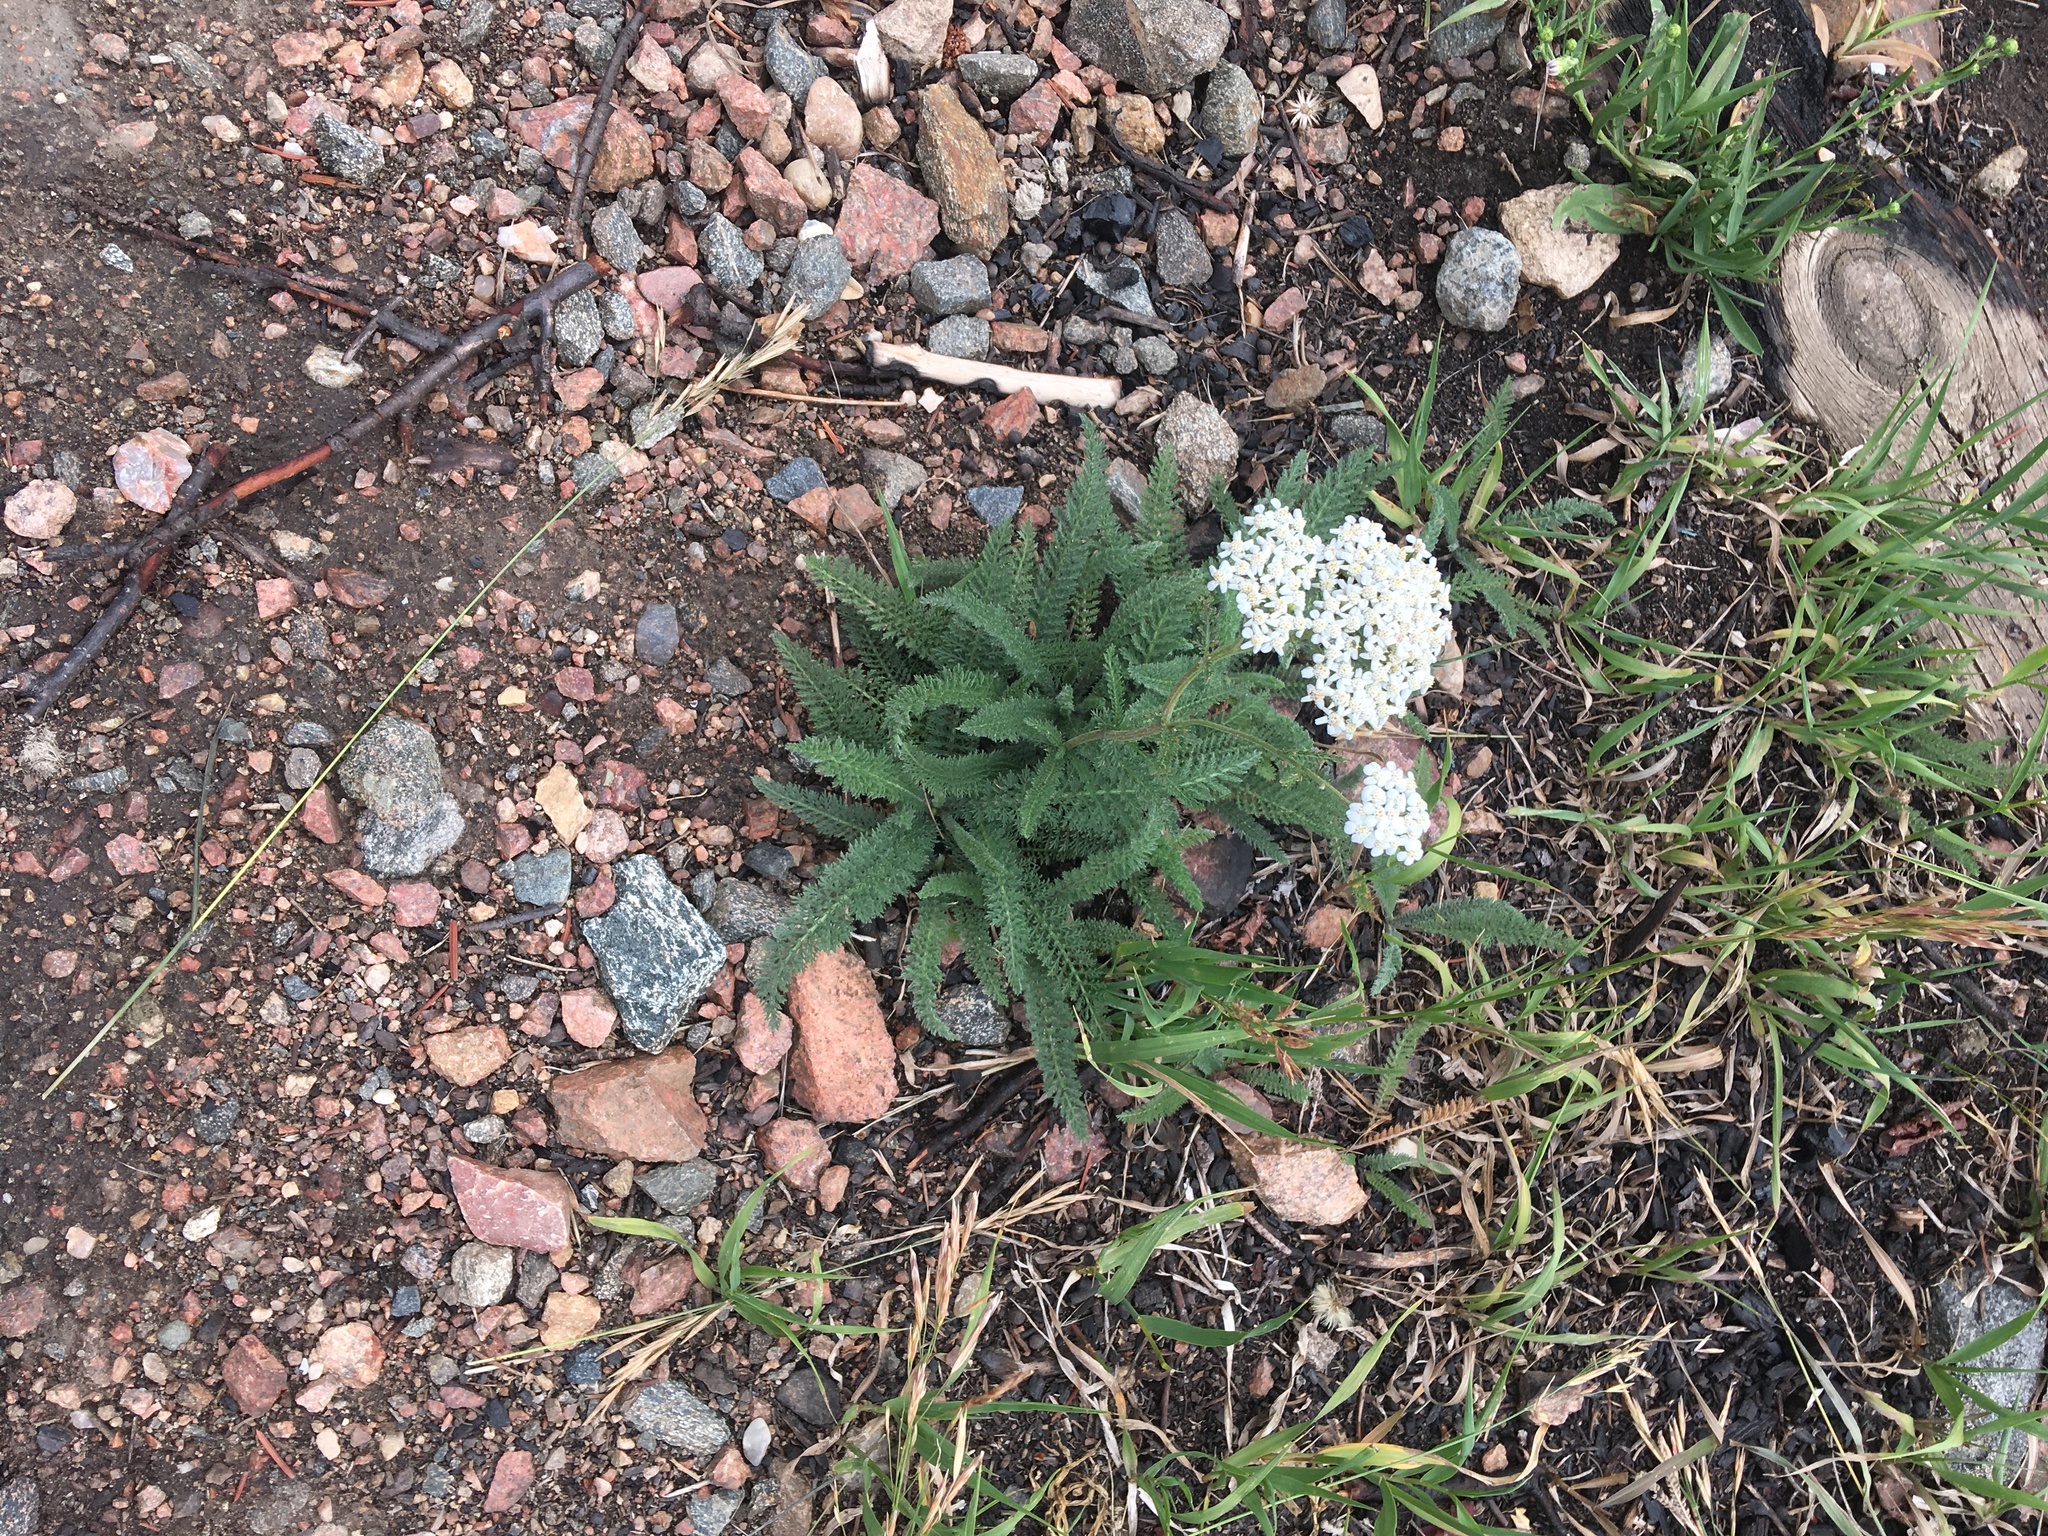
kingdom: Plantae
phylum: Tracheophyta
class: Magnoliopsida
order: Asterales
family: Asteraceae
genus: Achillea
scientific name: Achillea millefolium
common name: Yarrow
